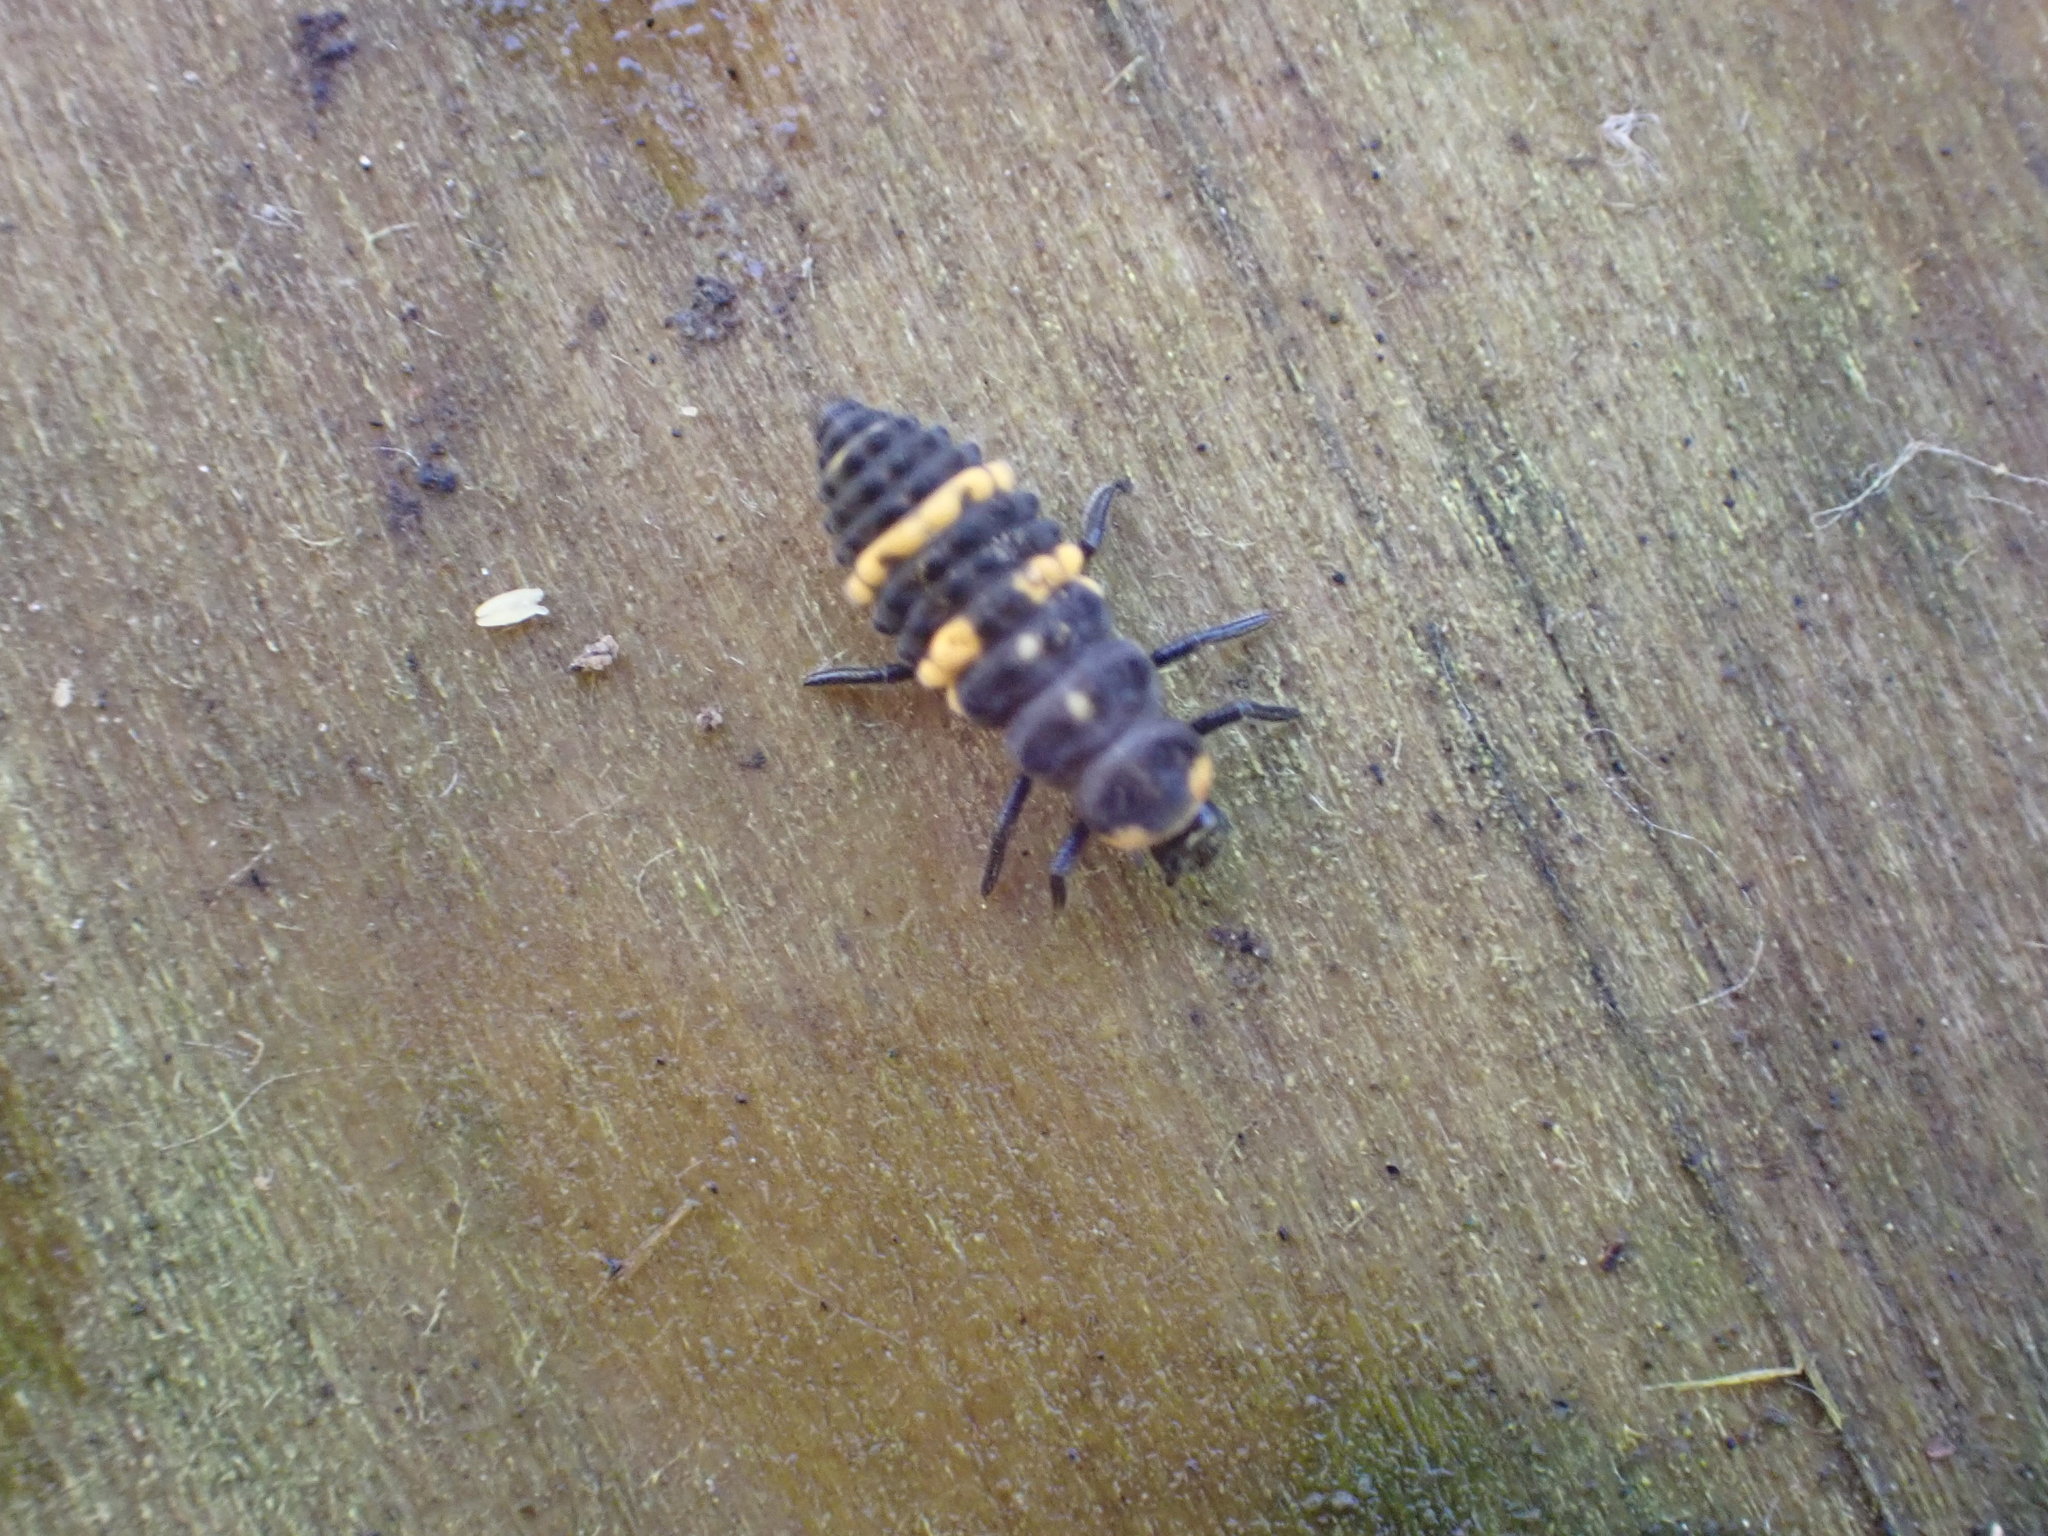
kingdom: Animalia
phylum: Arthropoda
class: Insecta
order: Coleoptera
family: Coccinellidae
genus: Coccinella
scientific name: Coccinella leonina
